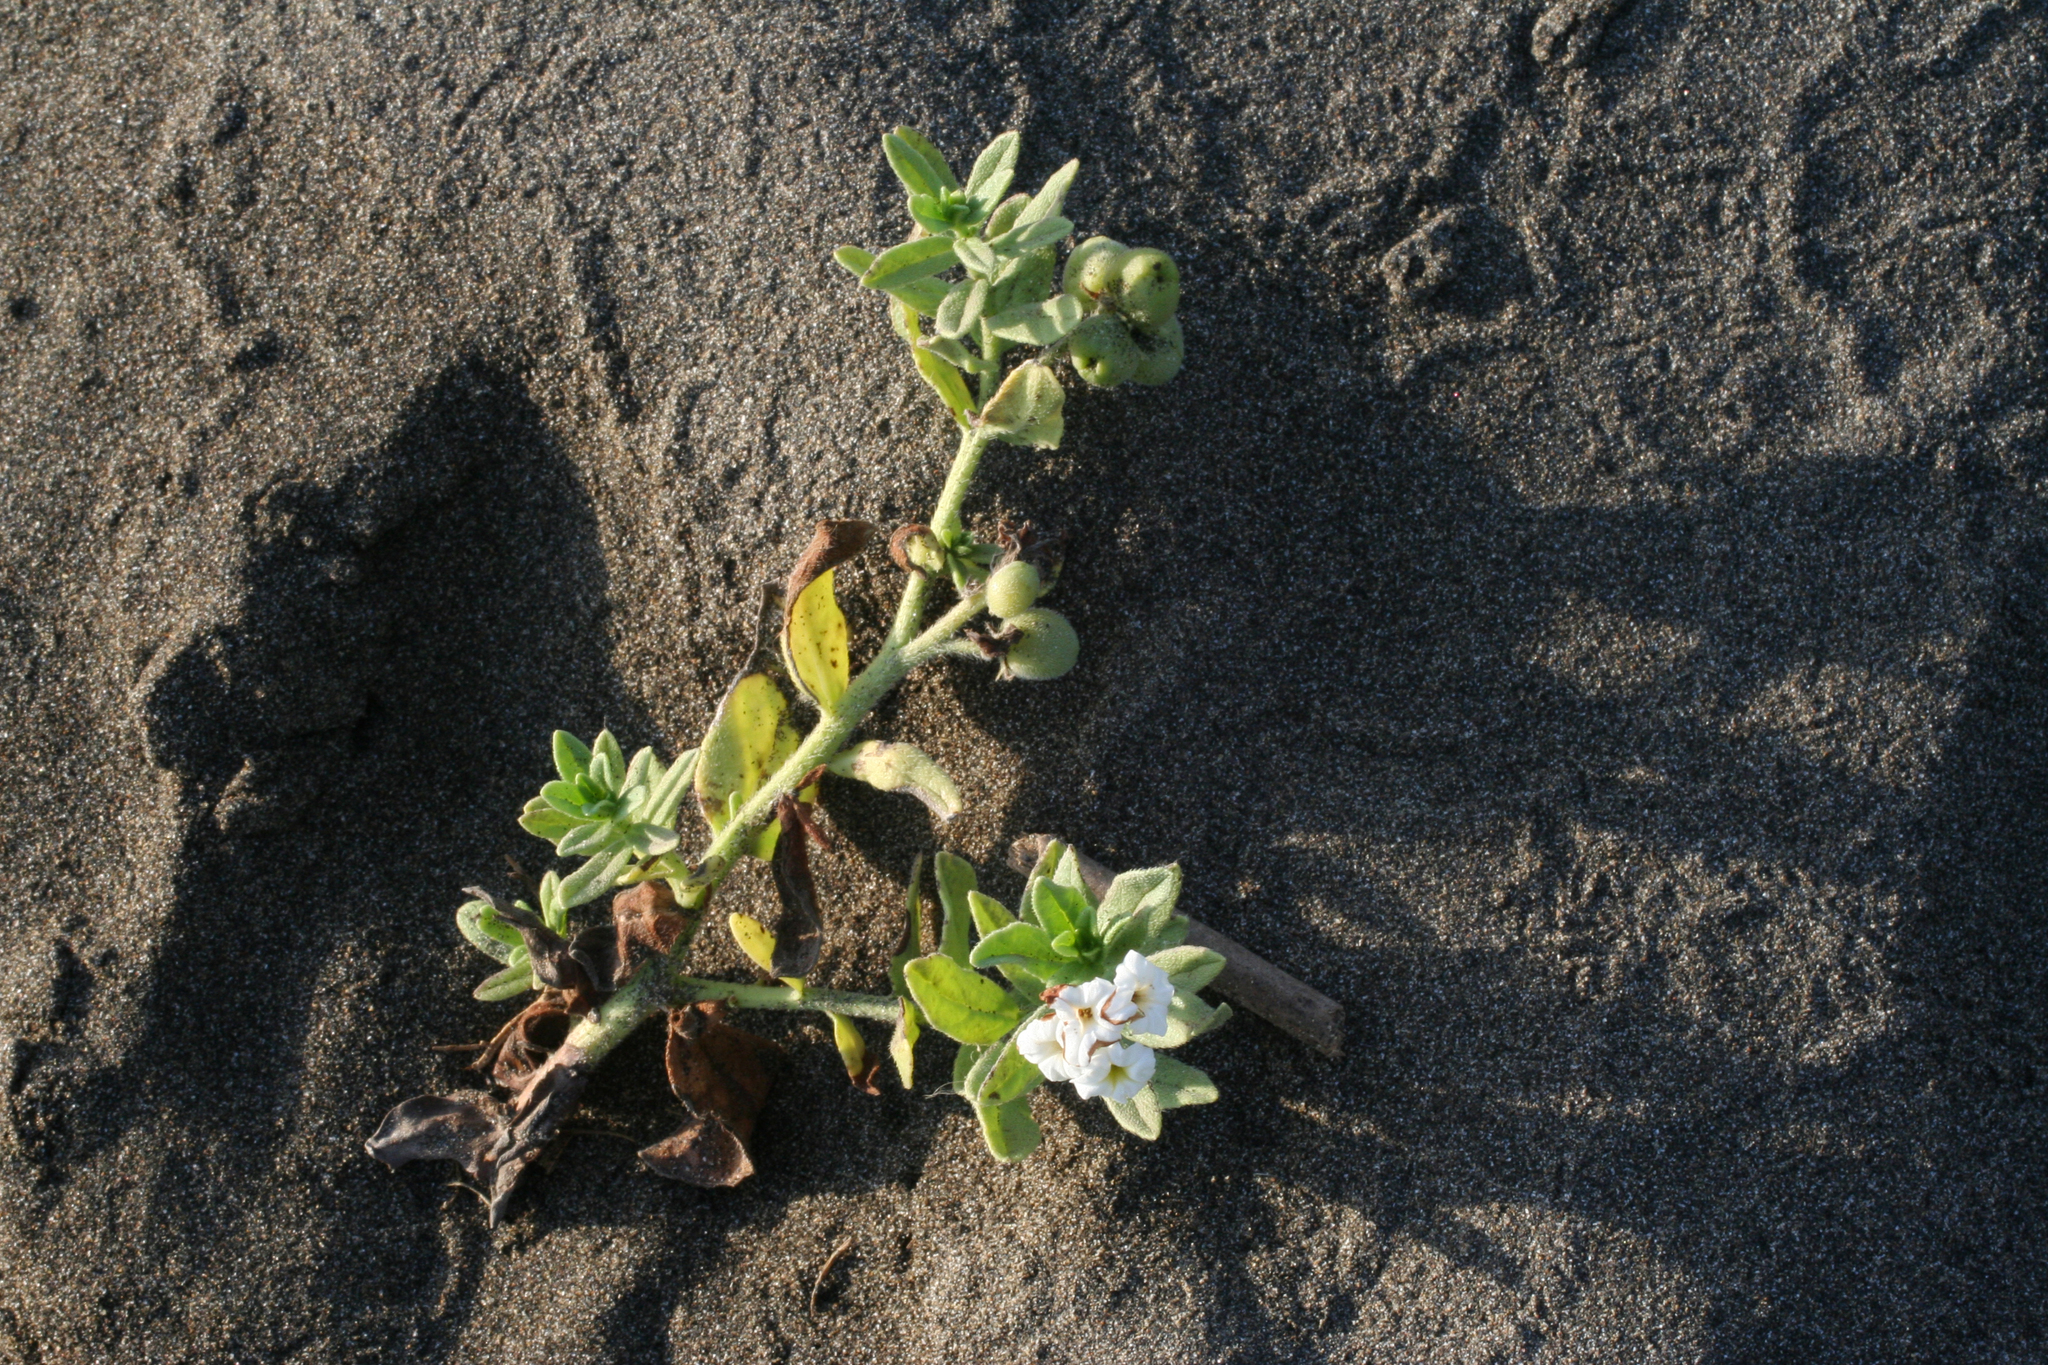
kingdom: Plantae
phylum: Tracheophyta
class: Magnoliopsida
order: Boraginales
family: Heliotropiaceae
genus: Tournefortia
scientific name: Tournefortia sibirica
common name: Siberian sea rosemary
